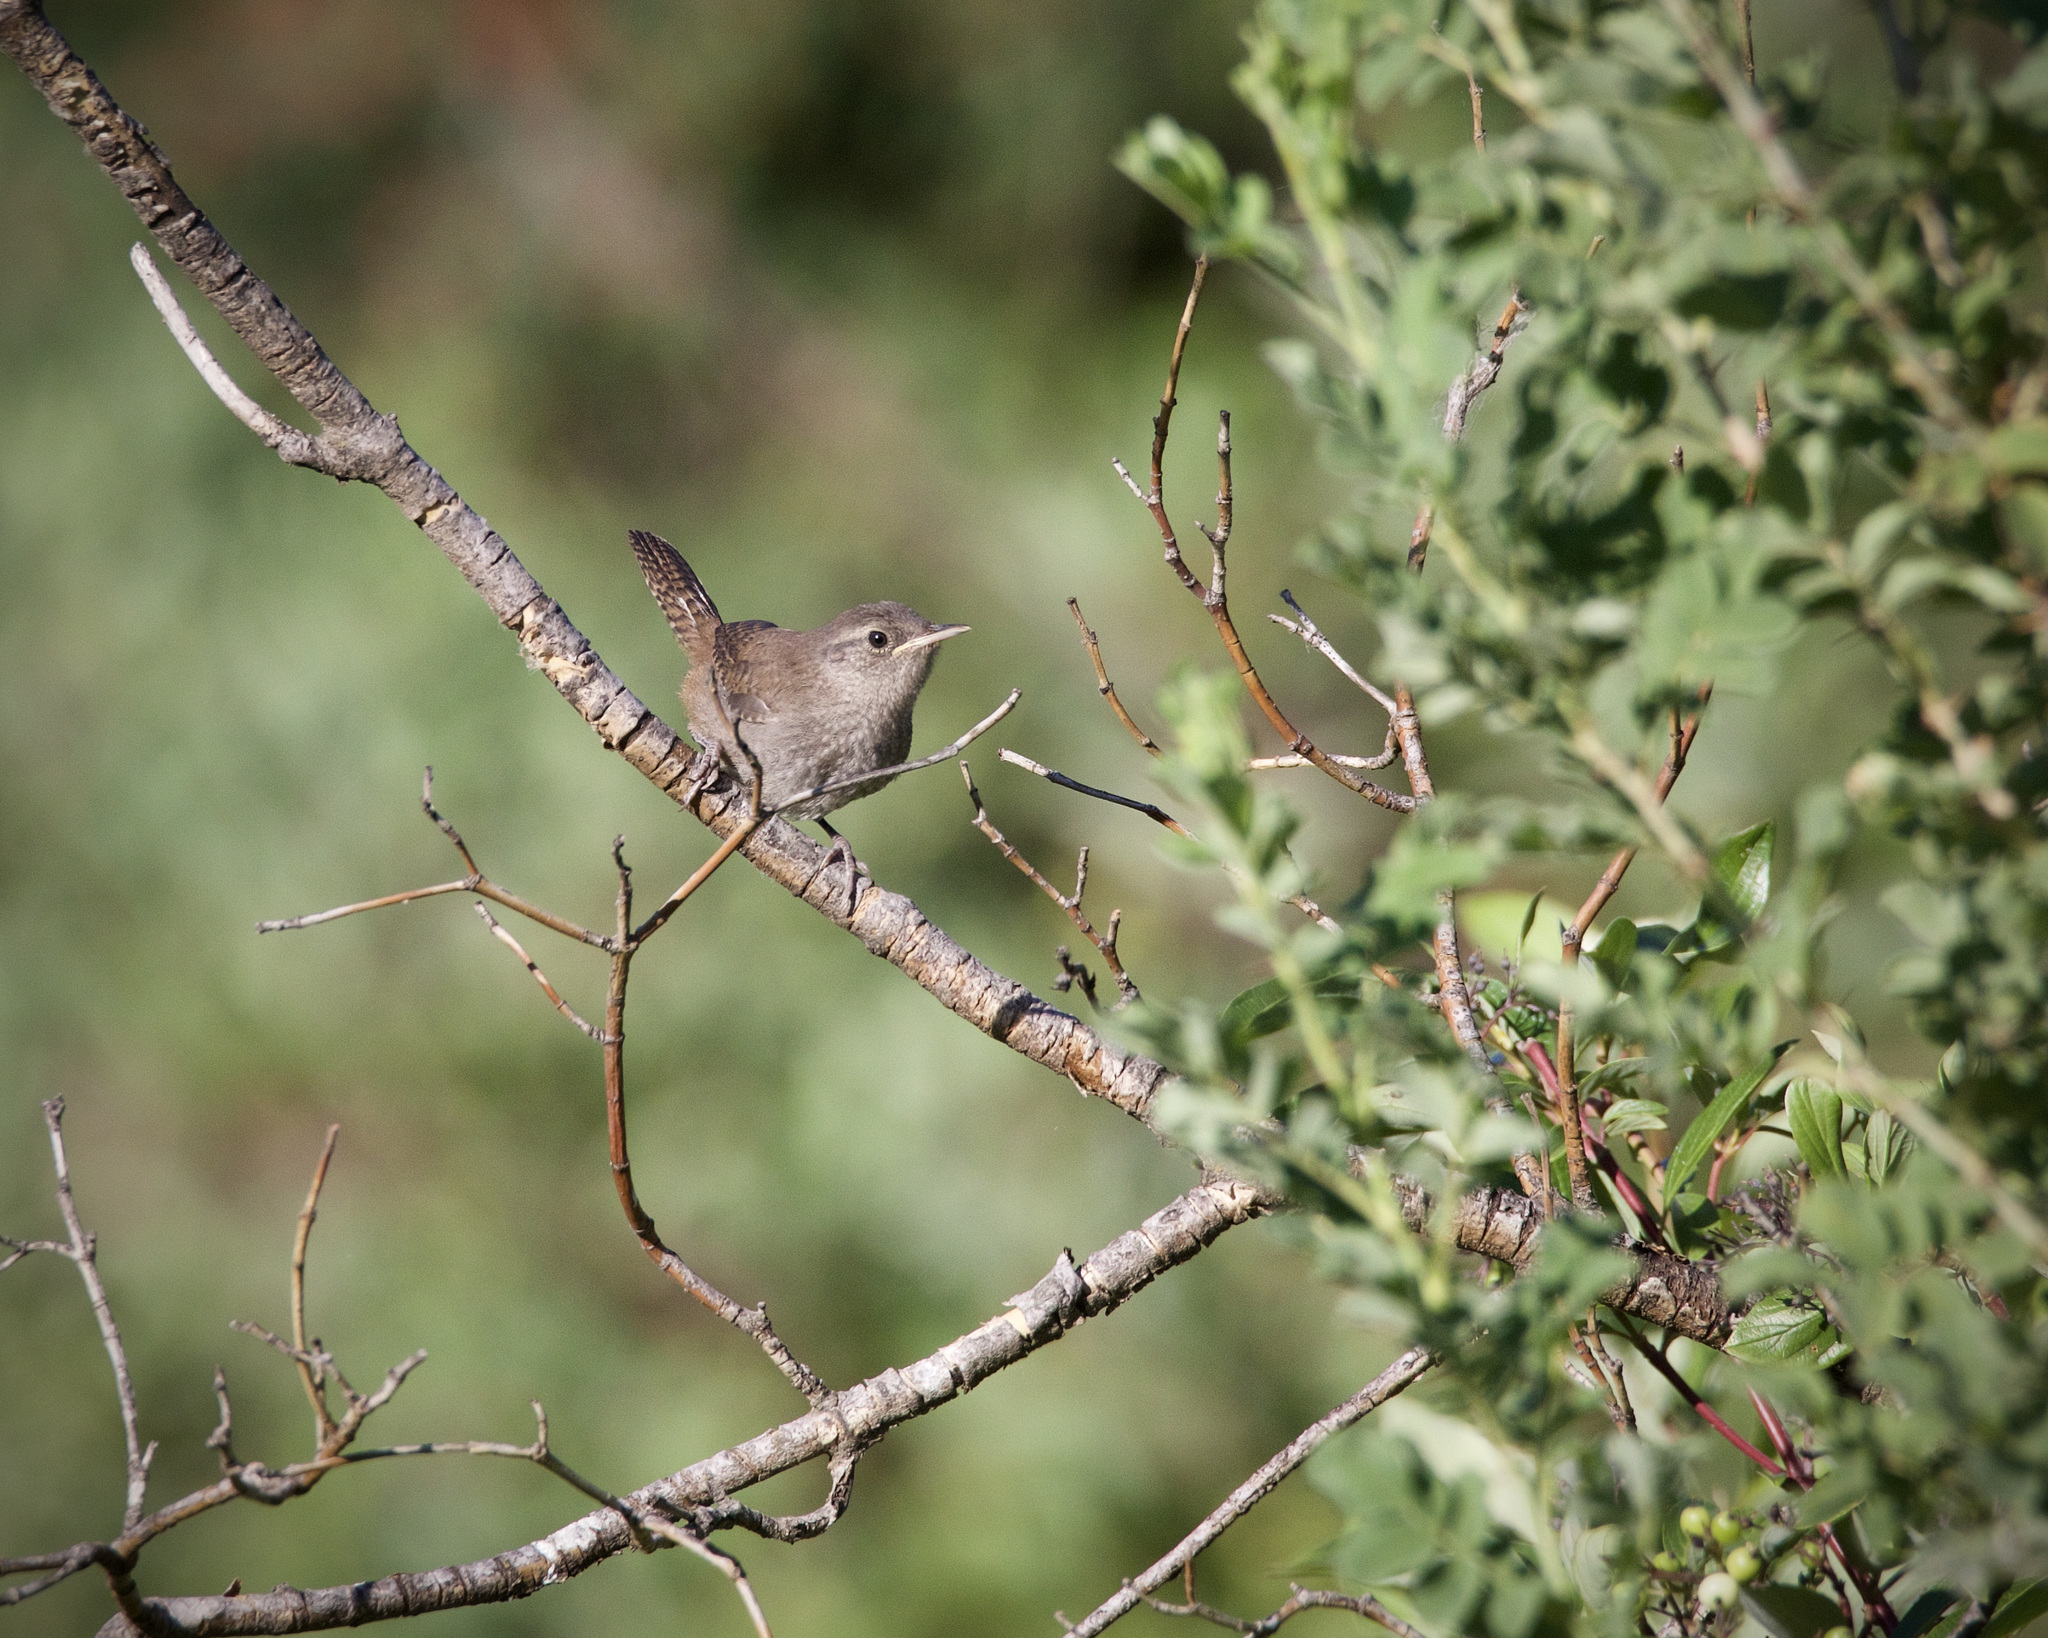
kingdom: Animalia
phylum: Chordata
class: Aves
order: Passeriformes
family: Troglodytidae
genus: Troglodytes
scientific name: Troglodytes aedon
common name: House wren
